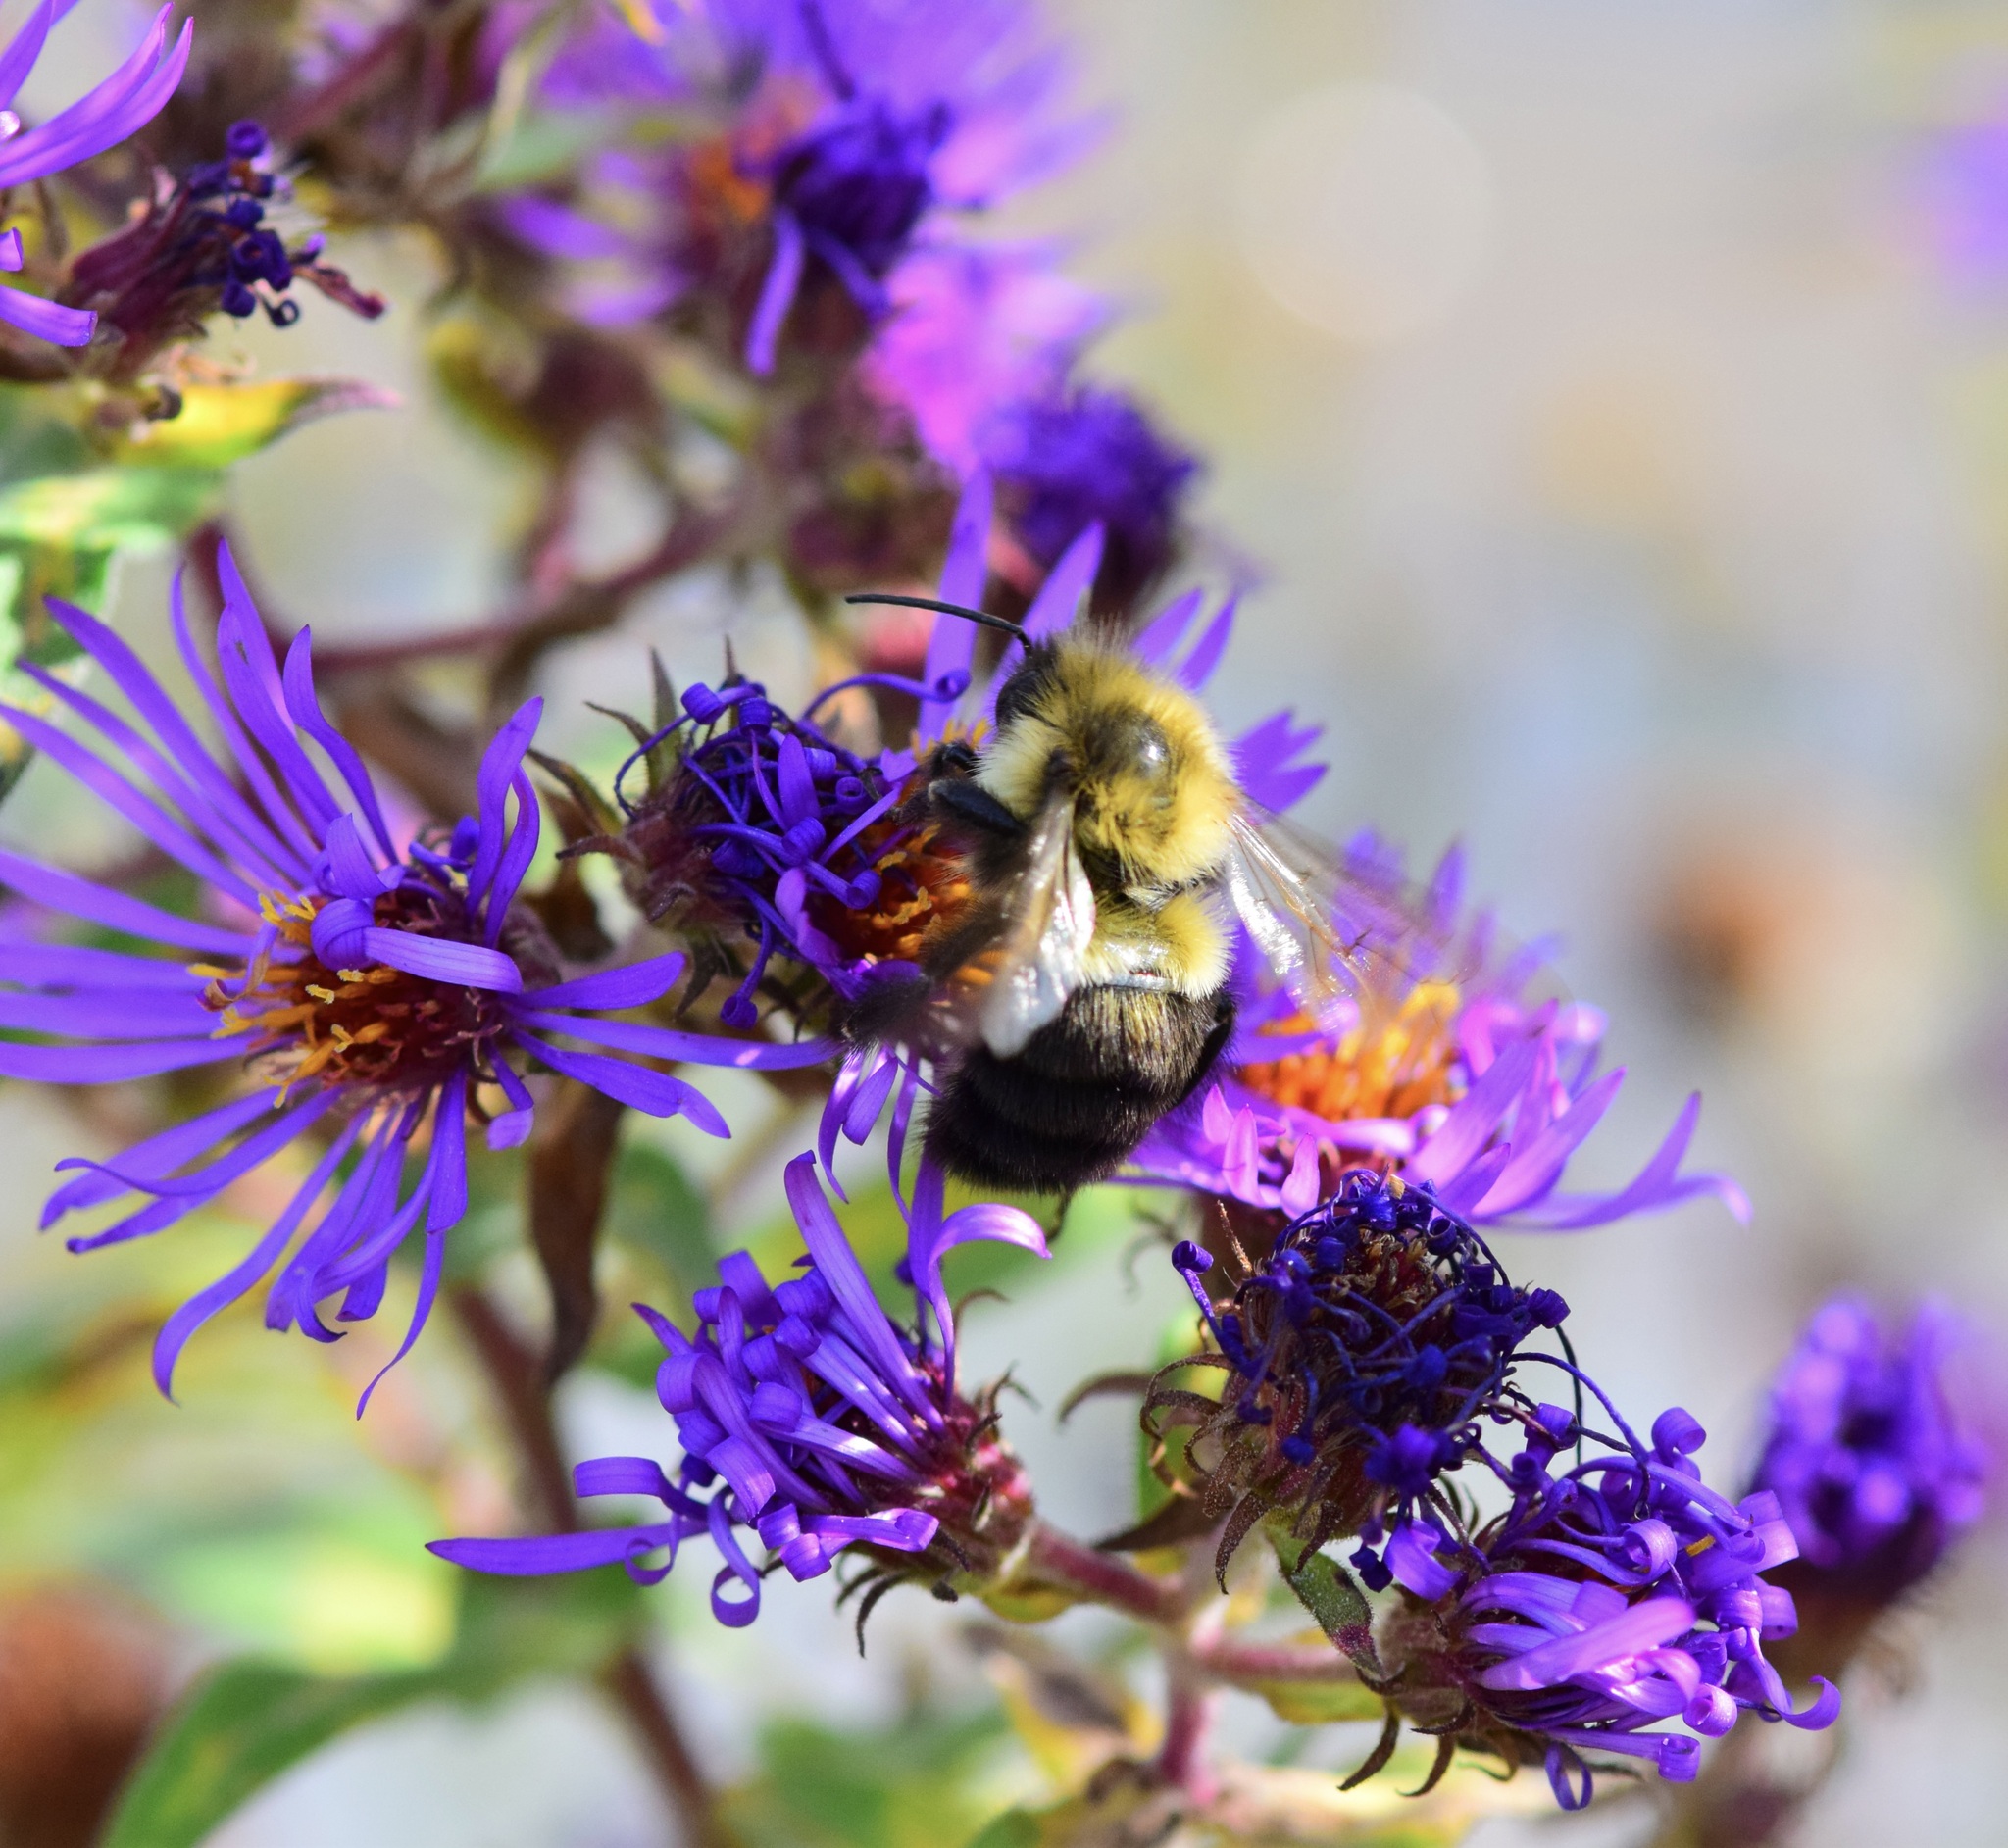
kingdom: Animalia
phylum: Arthropoda
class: Insecta
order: Hymenoptera
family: Apidae
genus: Bombus
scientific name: Bombus impatiens
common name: Common eastern bumble bee
